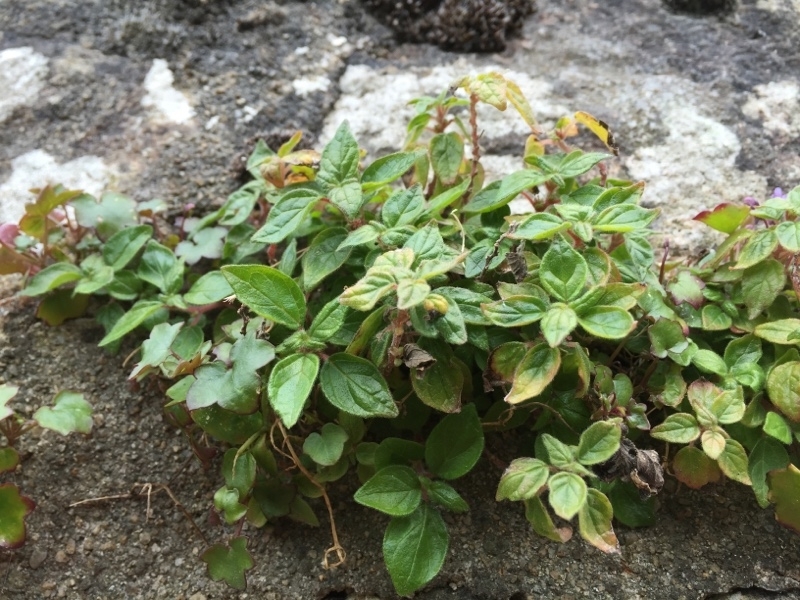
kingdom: Plantae
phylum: Tracheophyta
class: Magnoliopsida
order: Rosales
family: Urticaceae
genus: Parietaria
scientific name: Parietaria judaica
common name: Pellitory-of-the-wall
